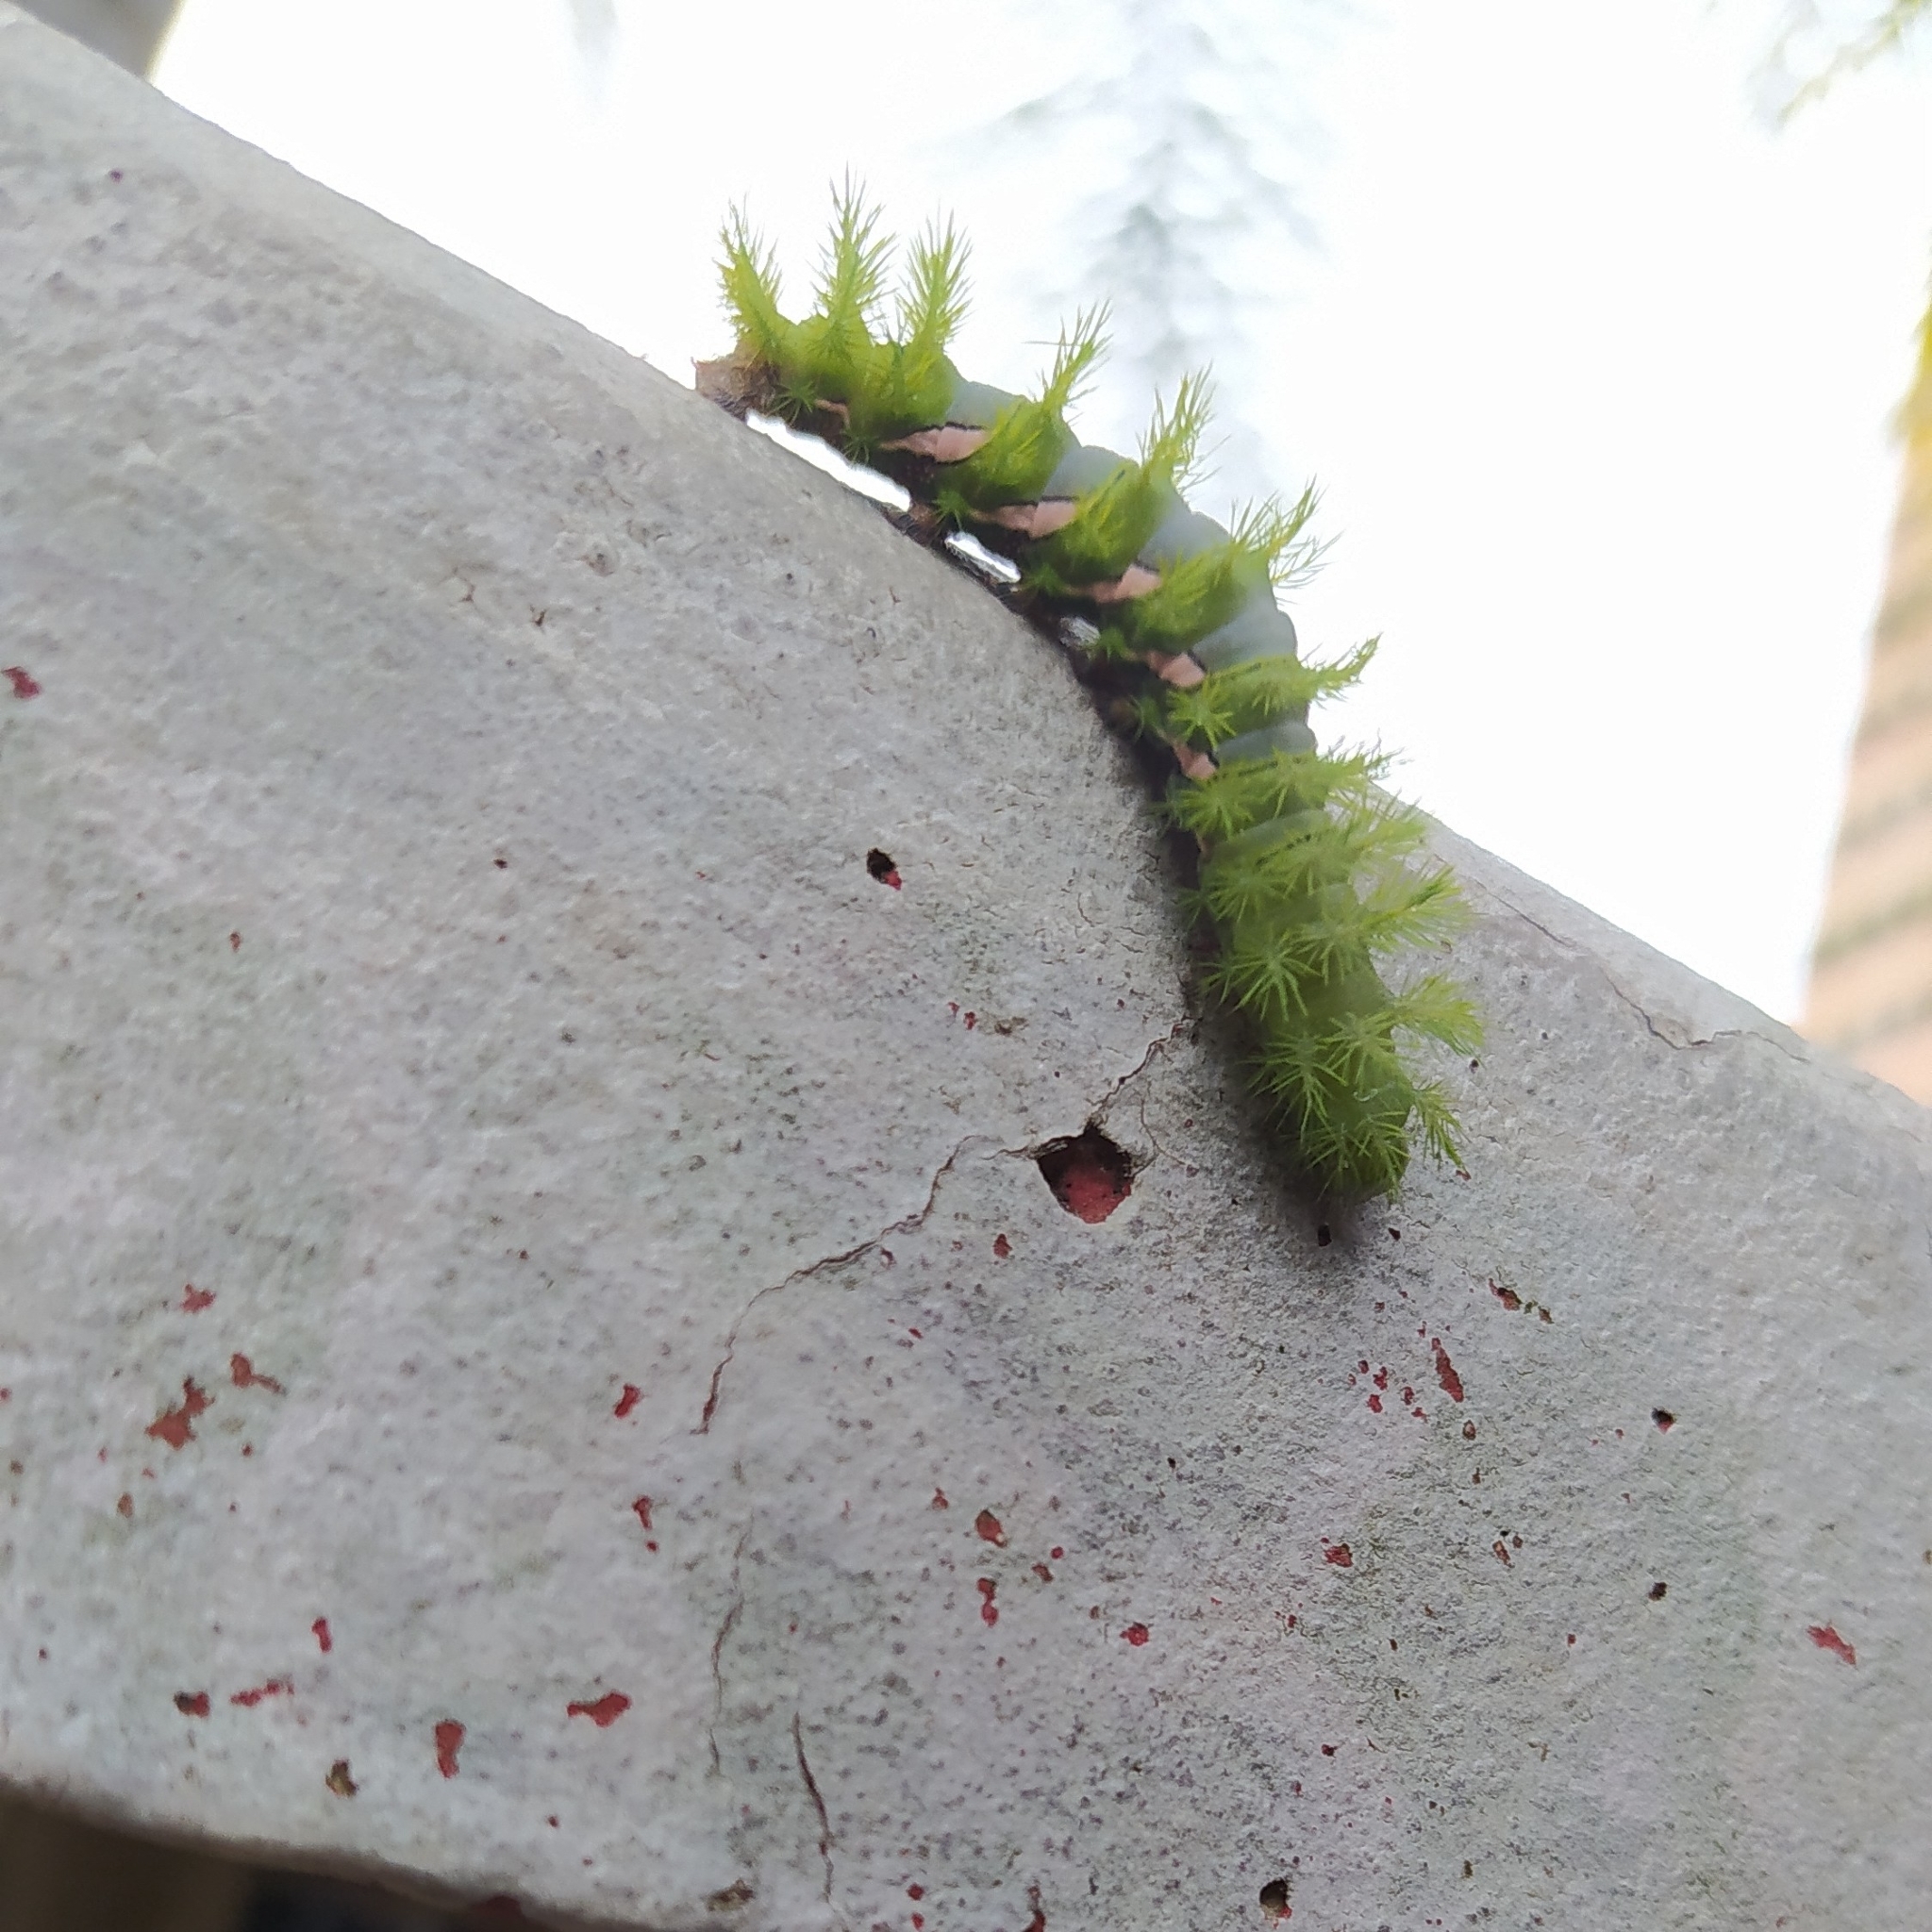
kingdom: Animalia
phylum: Arthropoda
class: Insecta
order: Lepidoptera
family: Saturniidae
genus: Automeris
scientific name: Automeris naranja
